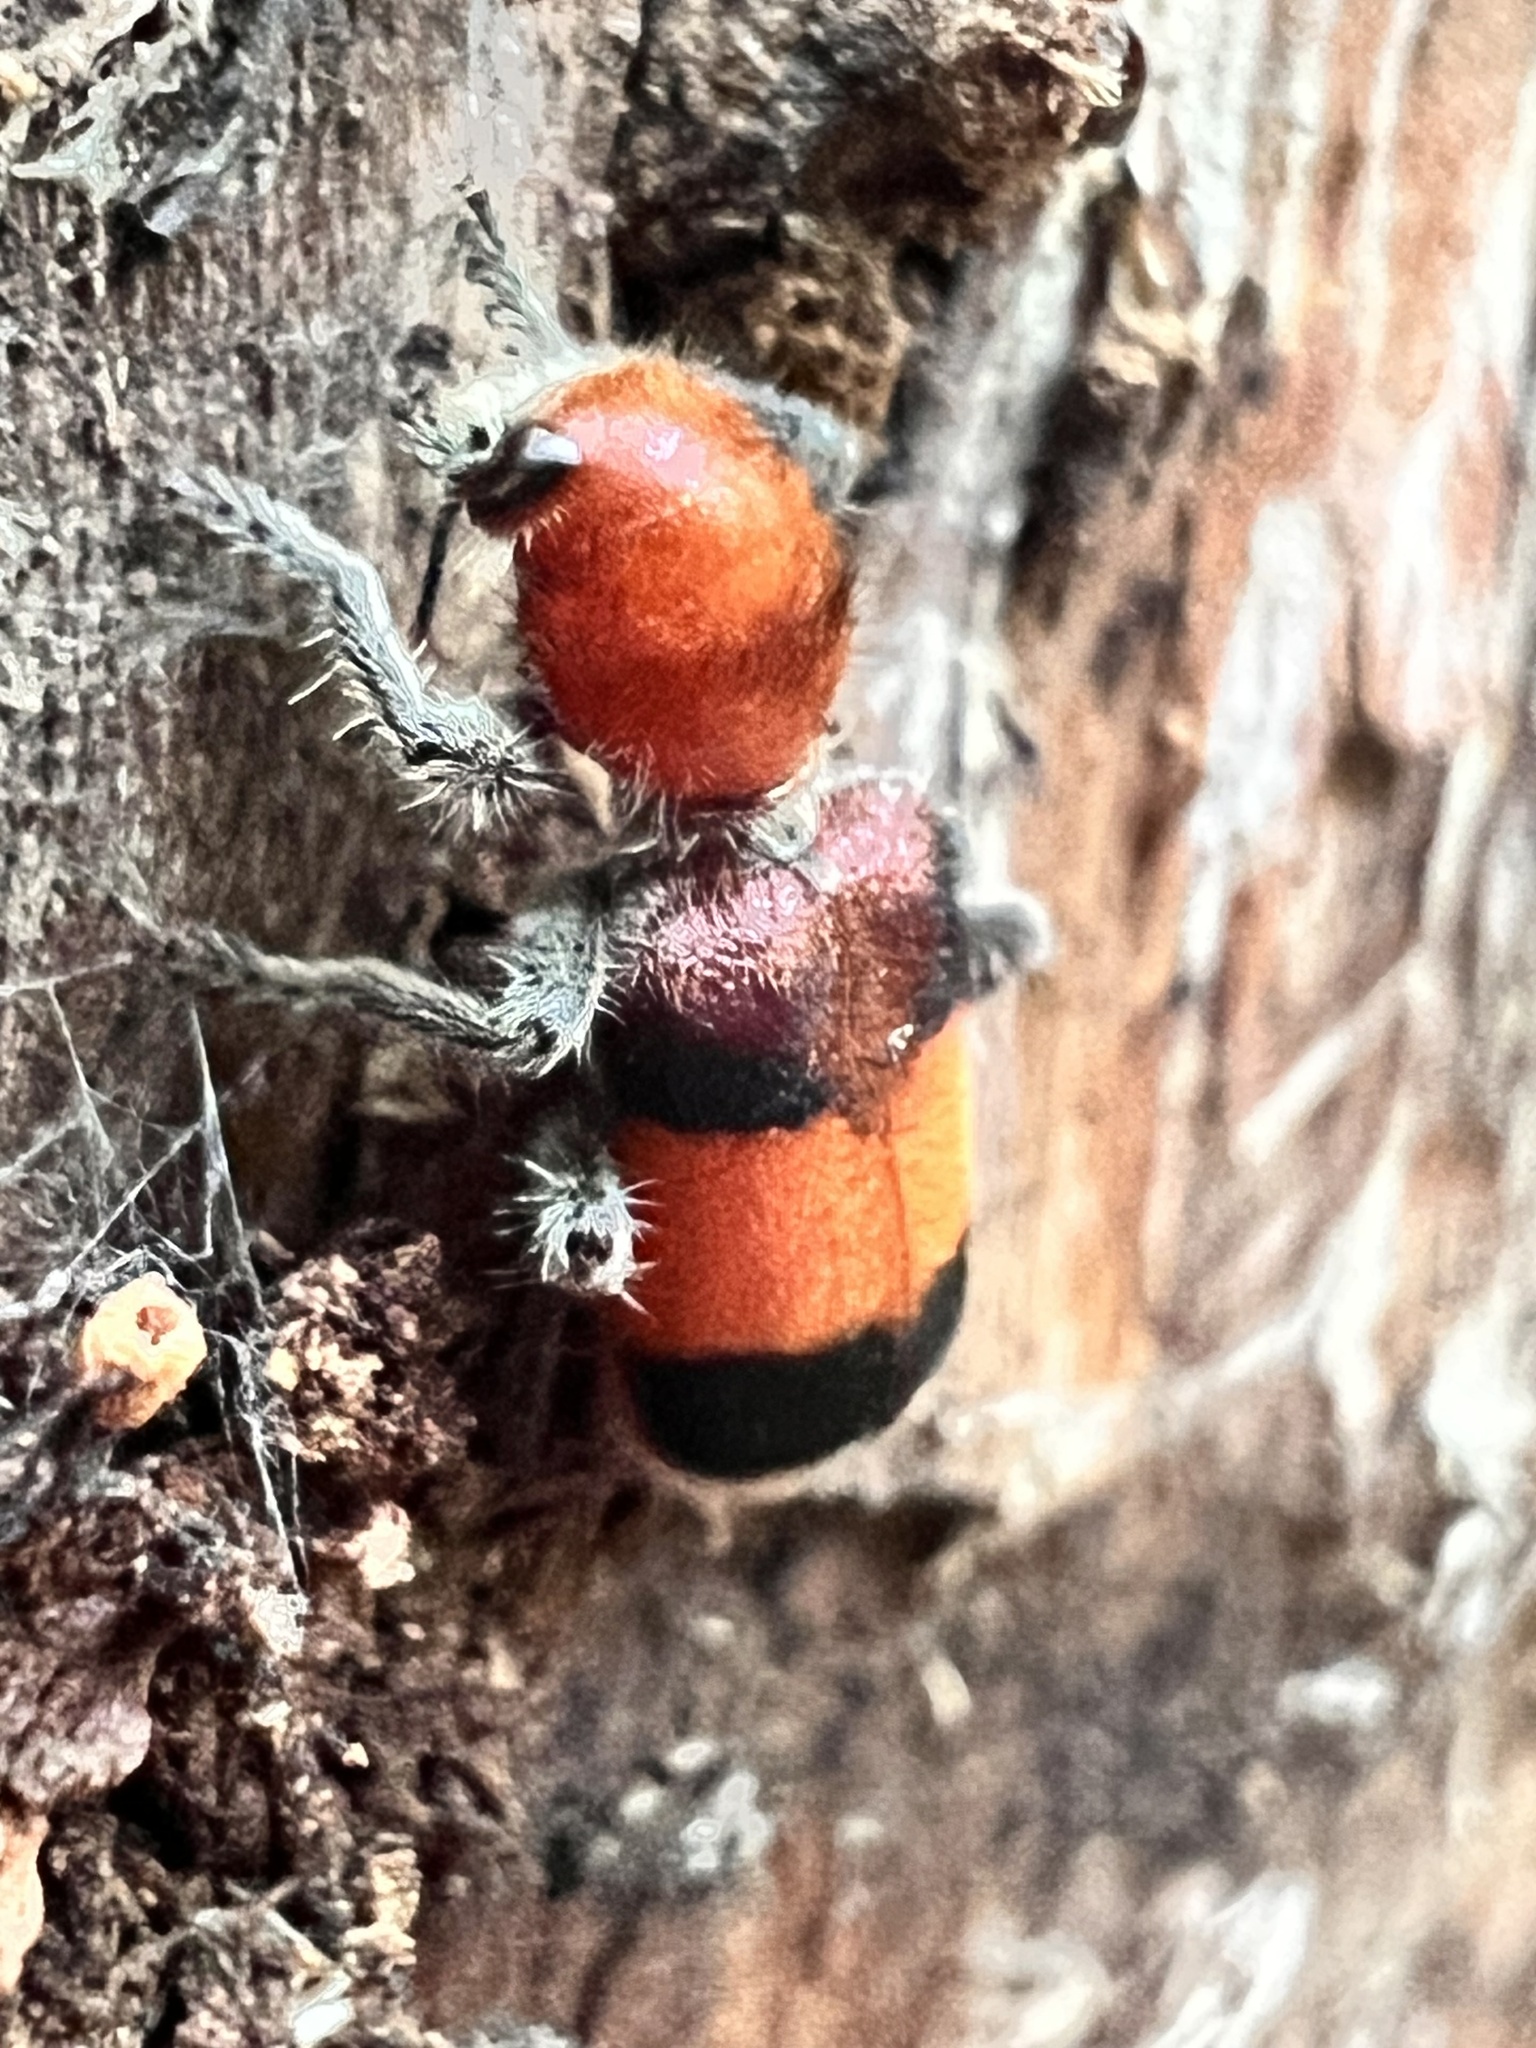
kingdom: Animalia
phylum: Arthropoda
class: Insecta
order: Coleoptera
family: Cleridae
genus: Enoclerus
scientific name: Enoclerus ichneumoneus
